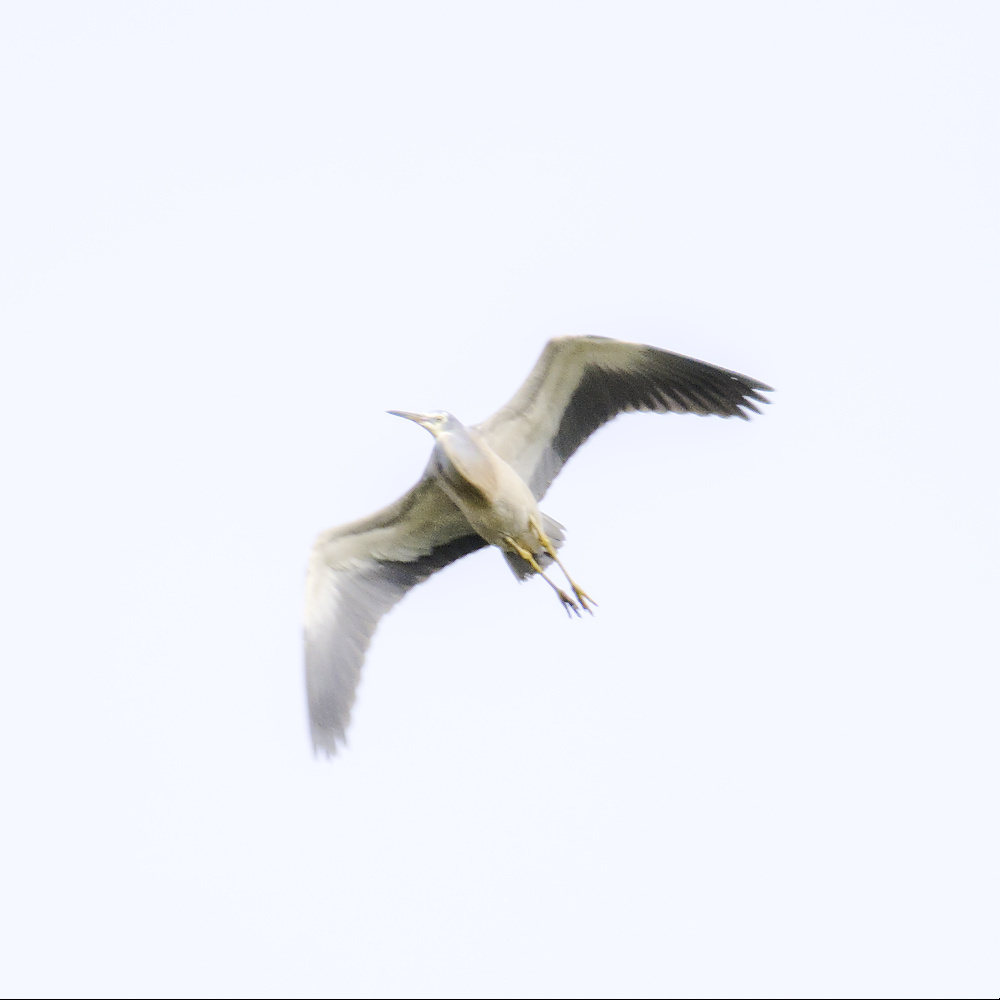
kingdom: Animalia
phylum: Chordata
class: Aves
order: Pelecaniformes
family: Ardeidae
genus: Egretta
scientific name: Egretta novaehollandiae
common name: White-faced heron
